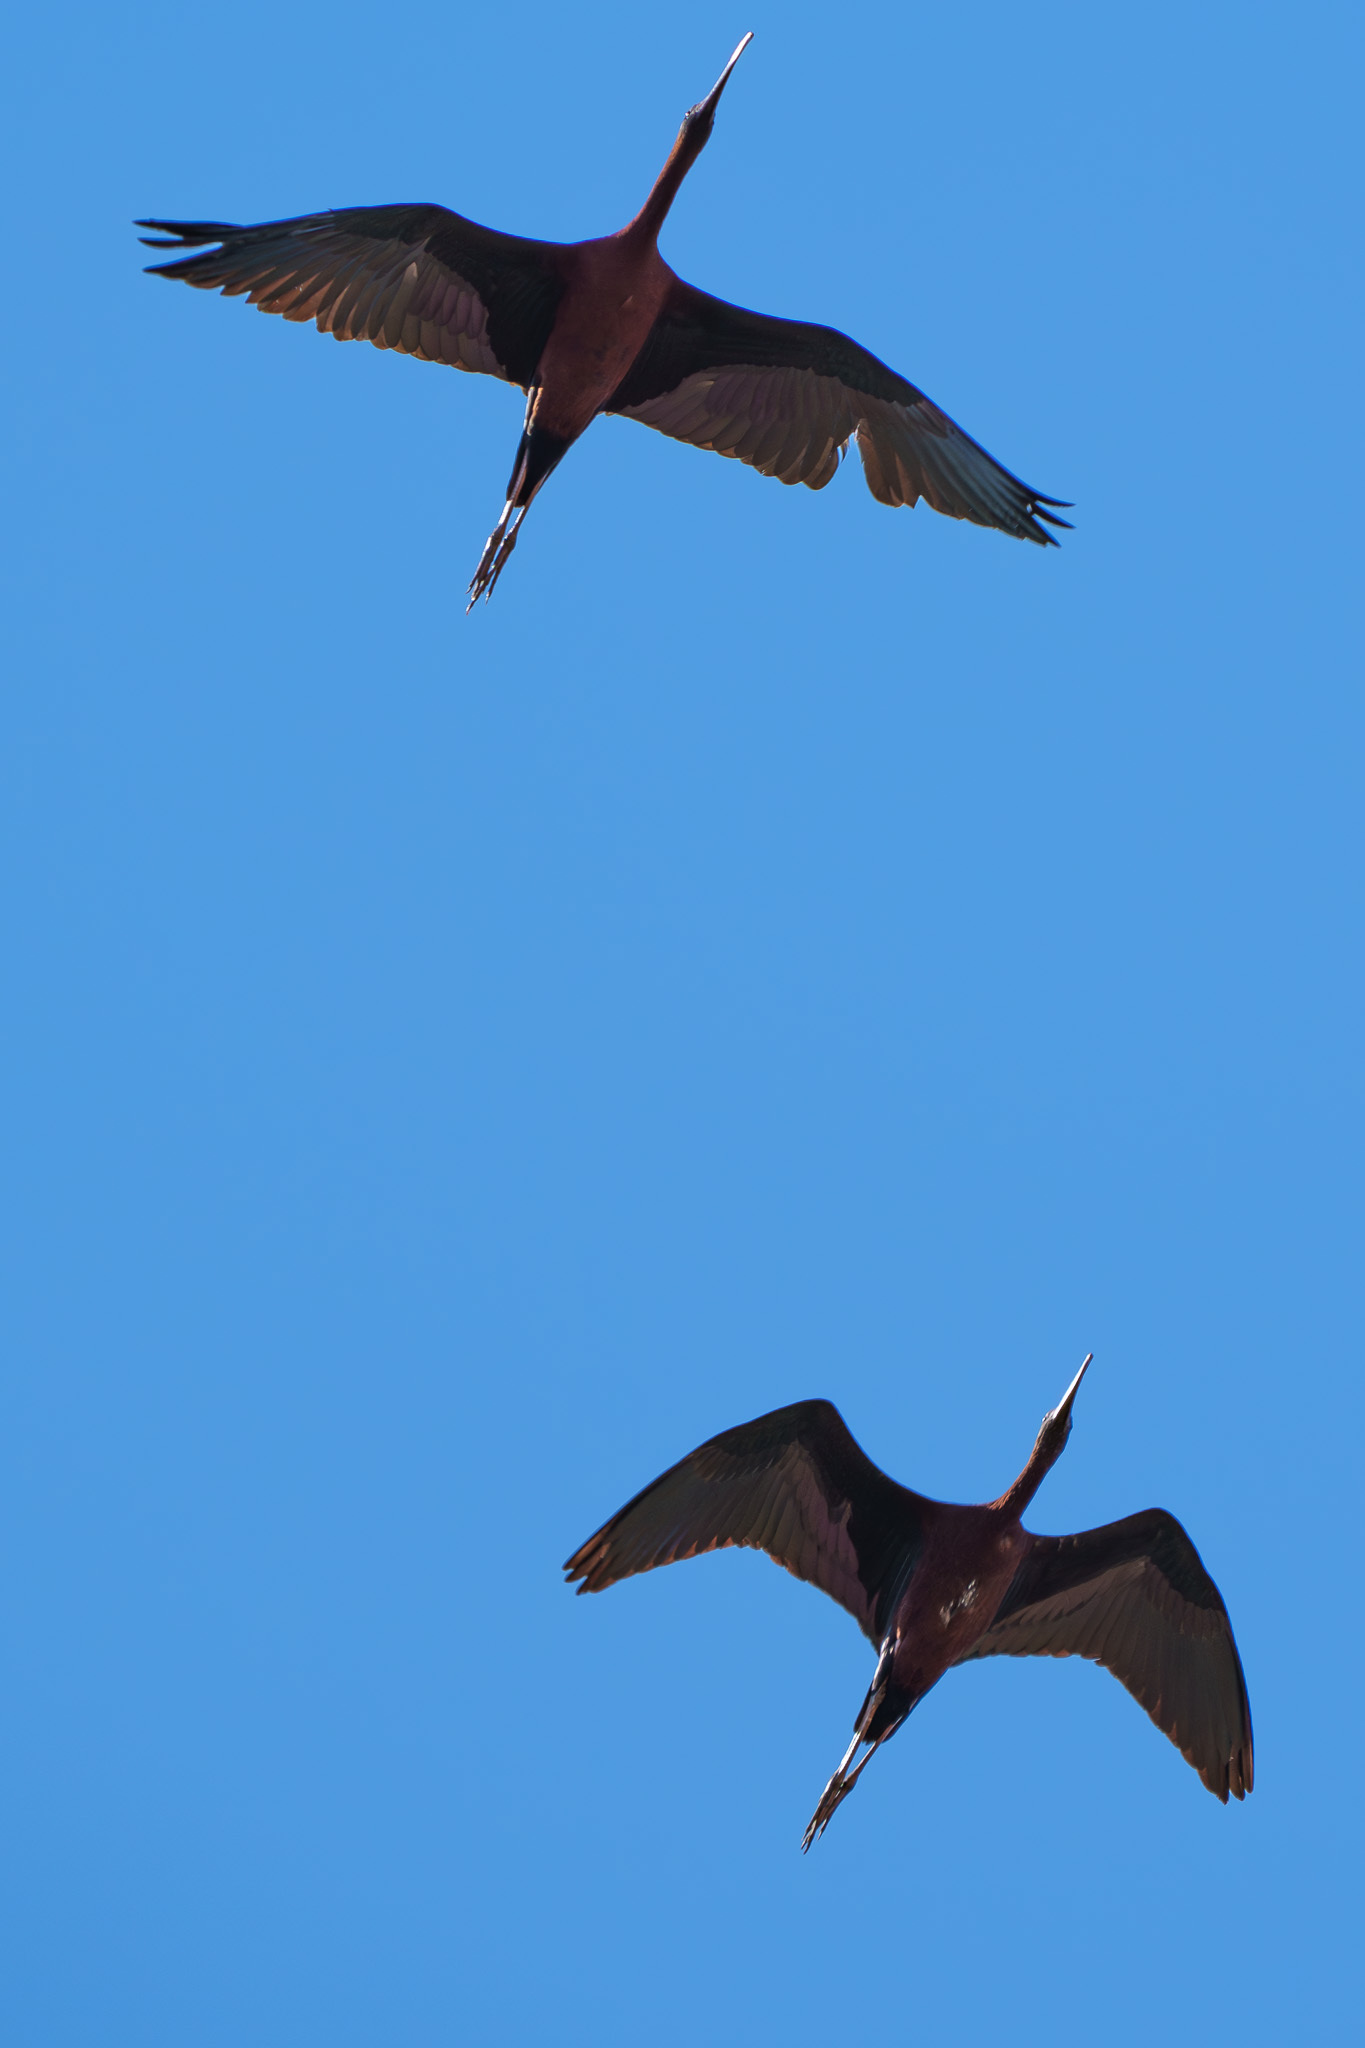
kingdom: Animalia
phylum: Chordata
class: Aves
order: Pelecaniformes
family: Threskiornithidae
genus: Plegadis
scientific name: Plegadis falcinellus
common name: Glossy ibis
